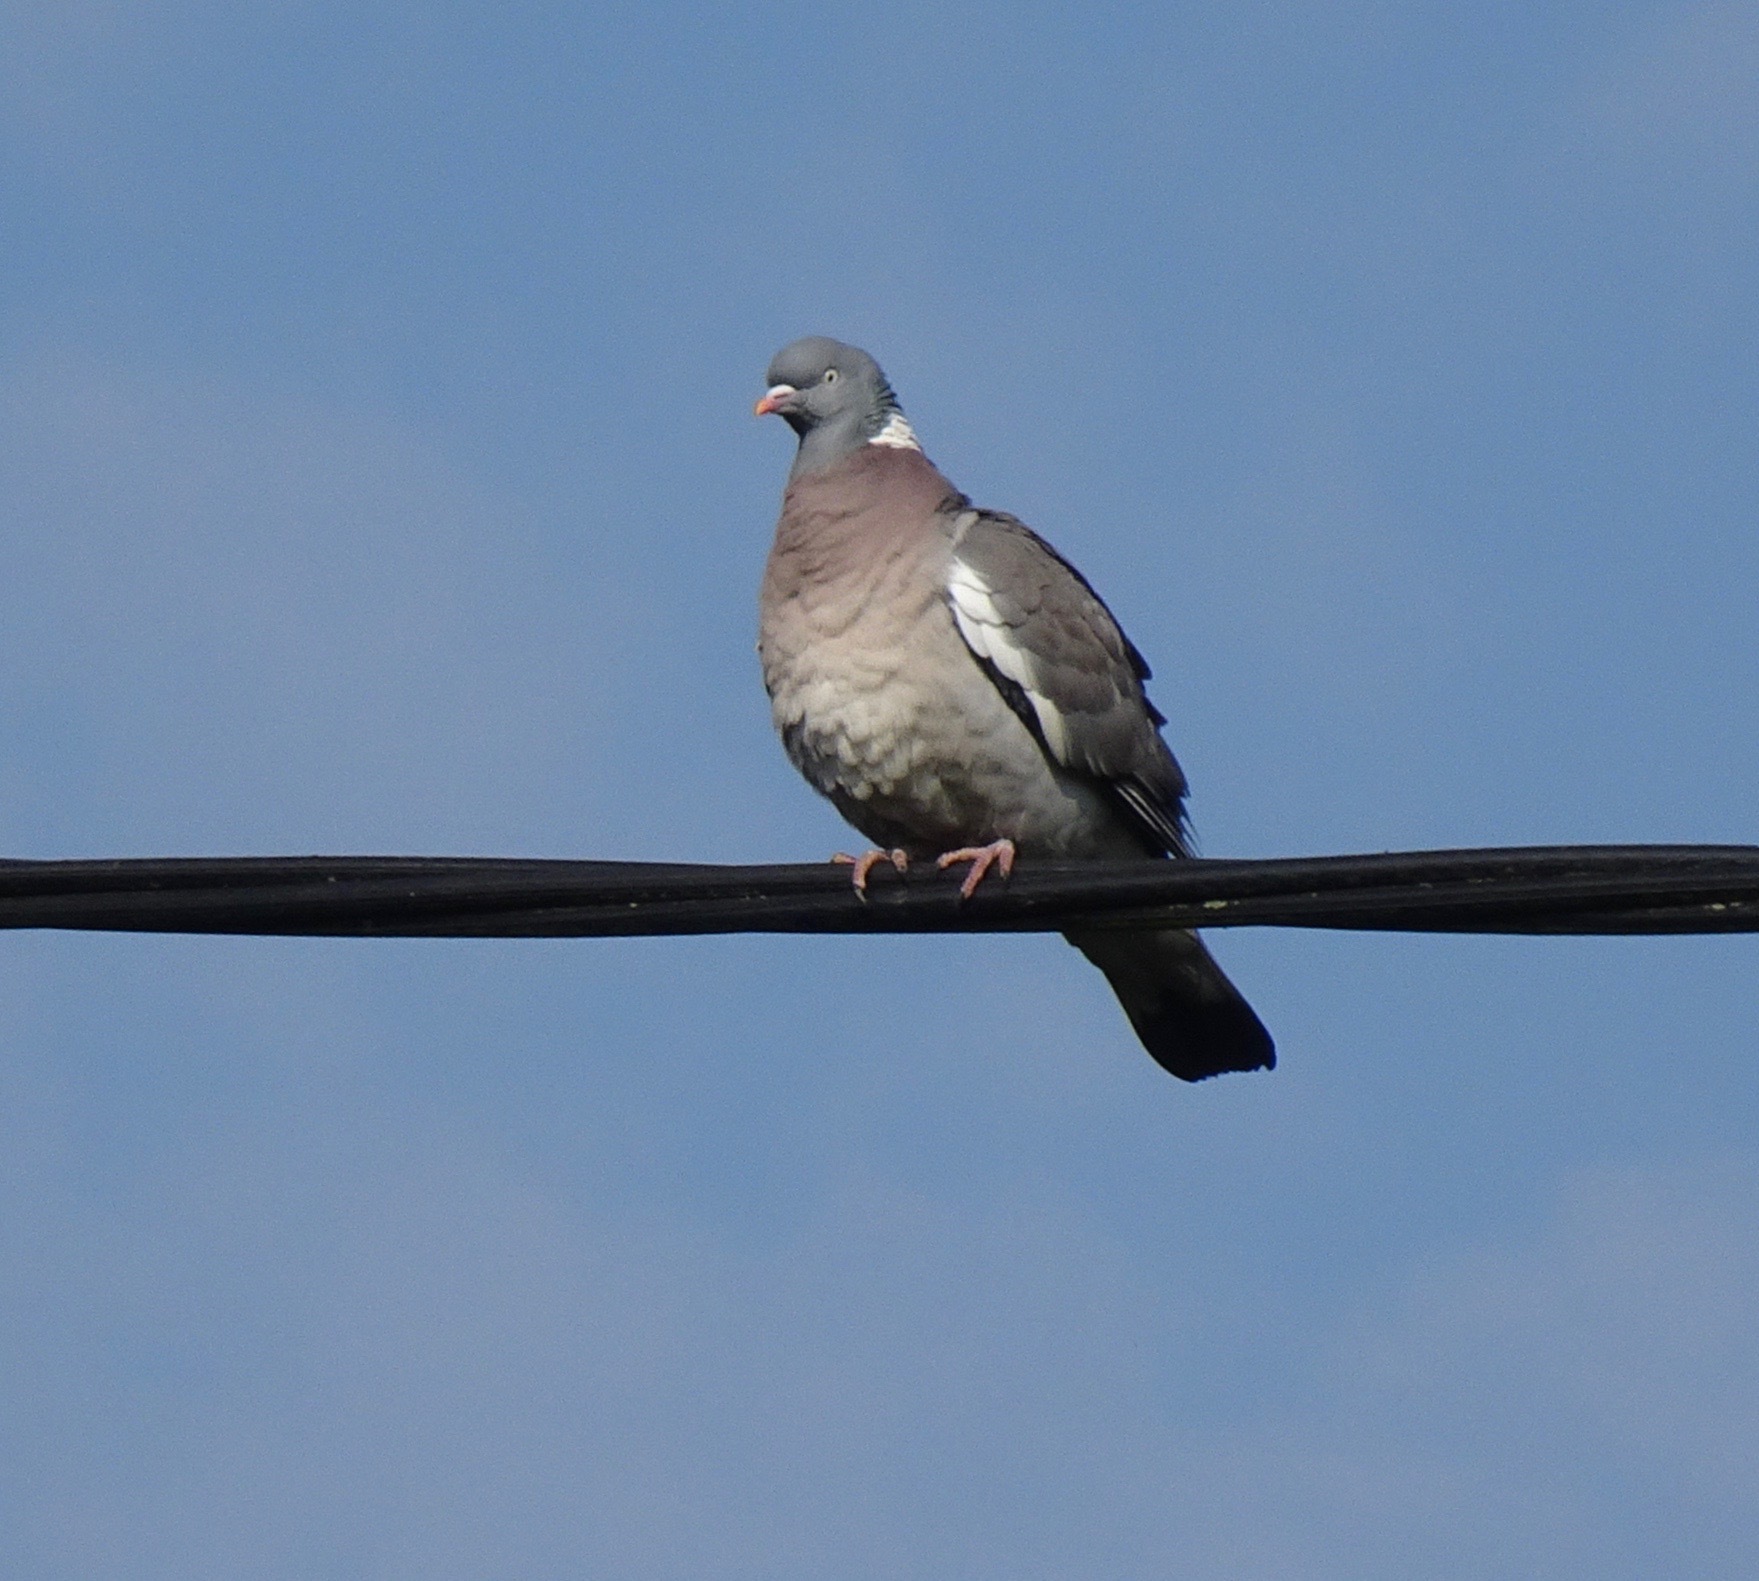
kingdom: Animalia
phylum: Chordata
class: Aves
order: Columbiformes
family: Columbidae
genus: Columba
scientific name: Columba palumbus
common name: Common wood pigeon
